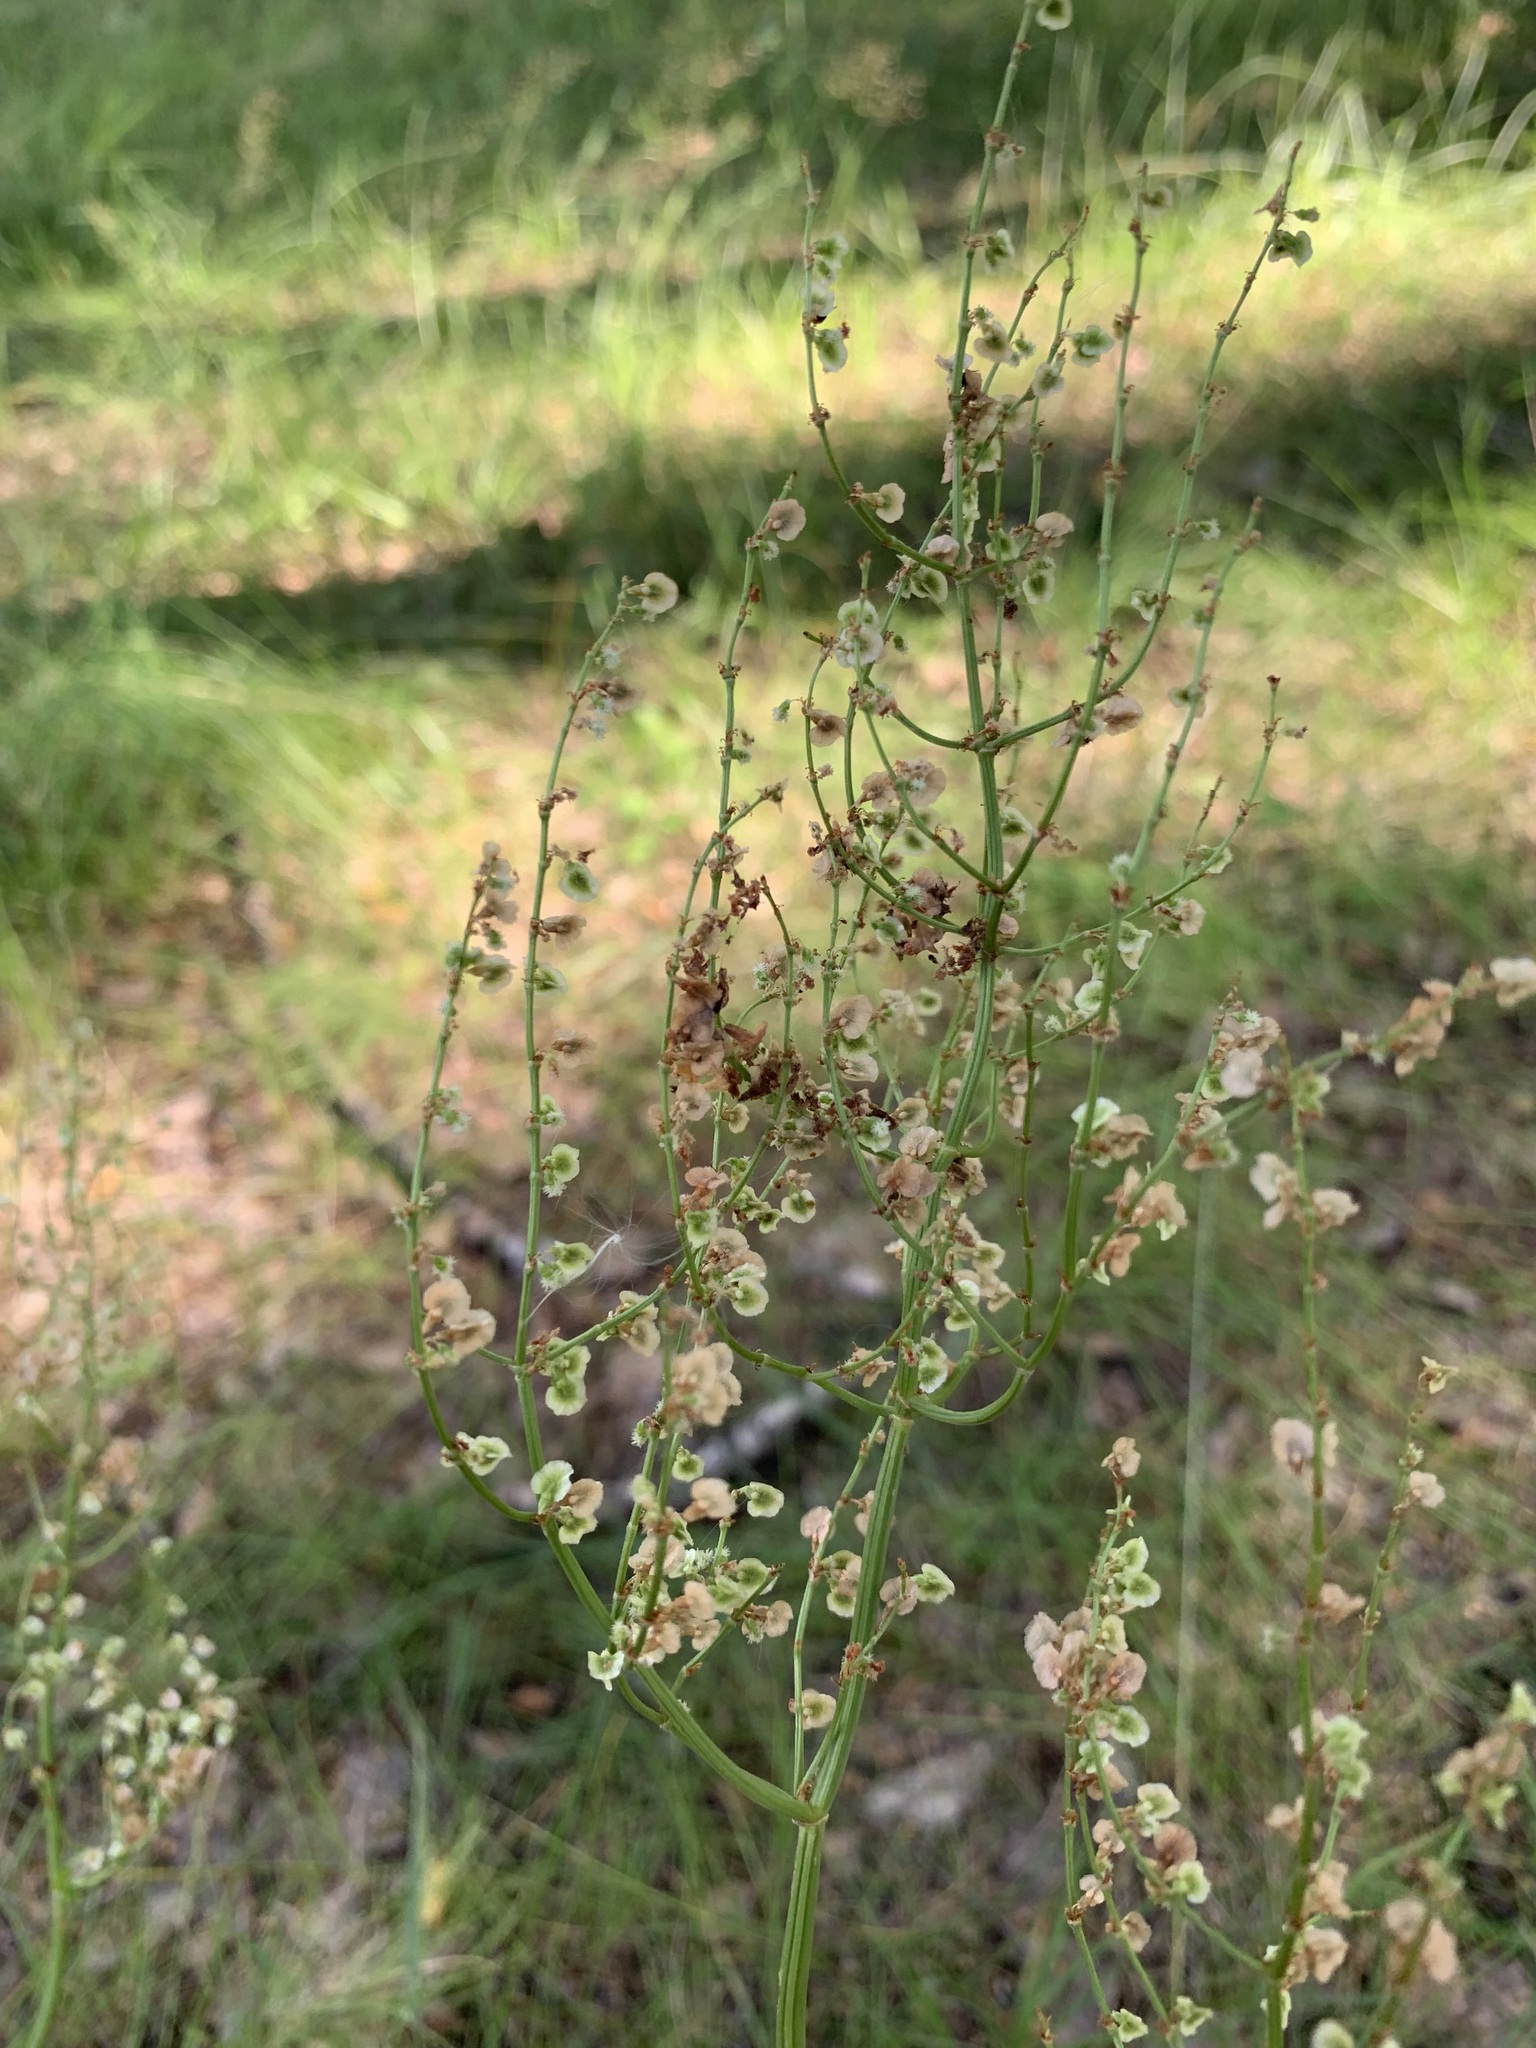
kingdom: Plantae
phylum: Tracheophyta
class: Magnoliopsida
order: Caryophyllales
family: Polygonaceae
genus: Rumex
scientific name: Rumex thyrsiflorus
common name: Garden sorrel
